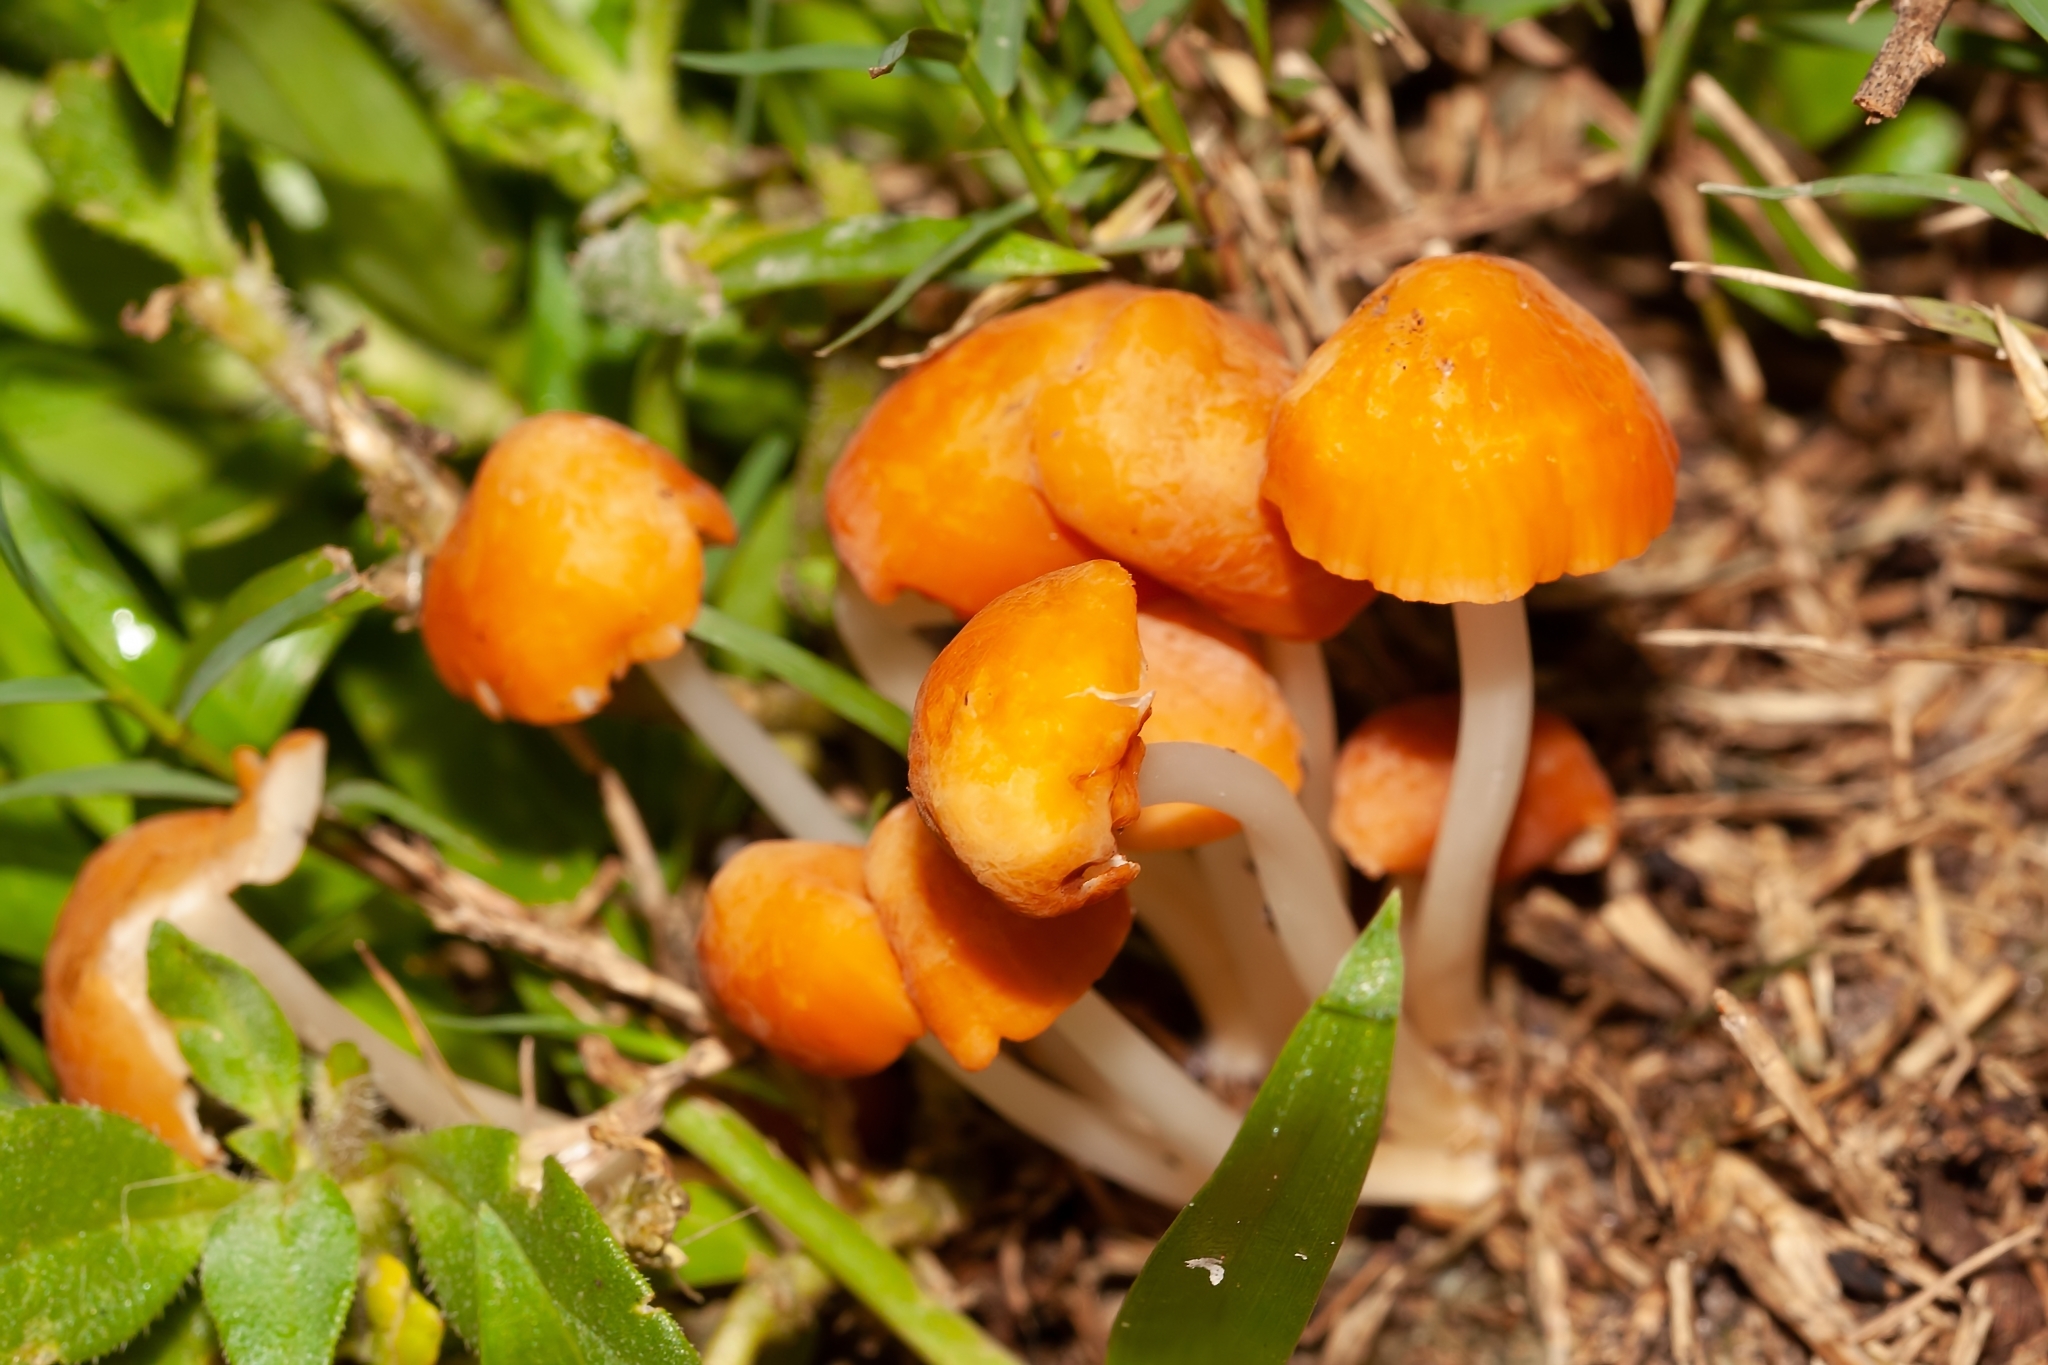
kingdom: Fungi
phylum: Basidiomycota
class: Agaricomycetes
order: Agaricales
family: Marasmiaceae
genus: Marasmius
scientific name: Marasmius vagus
